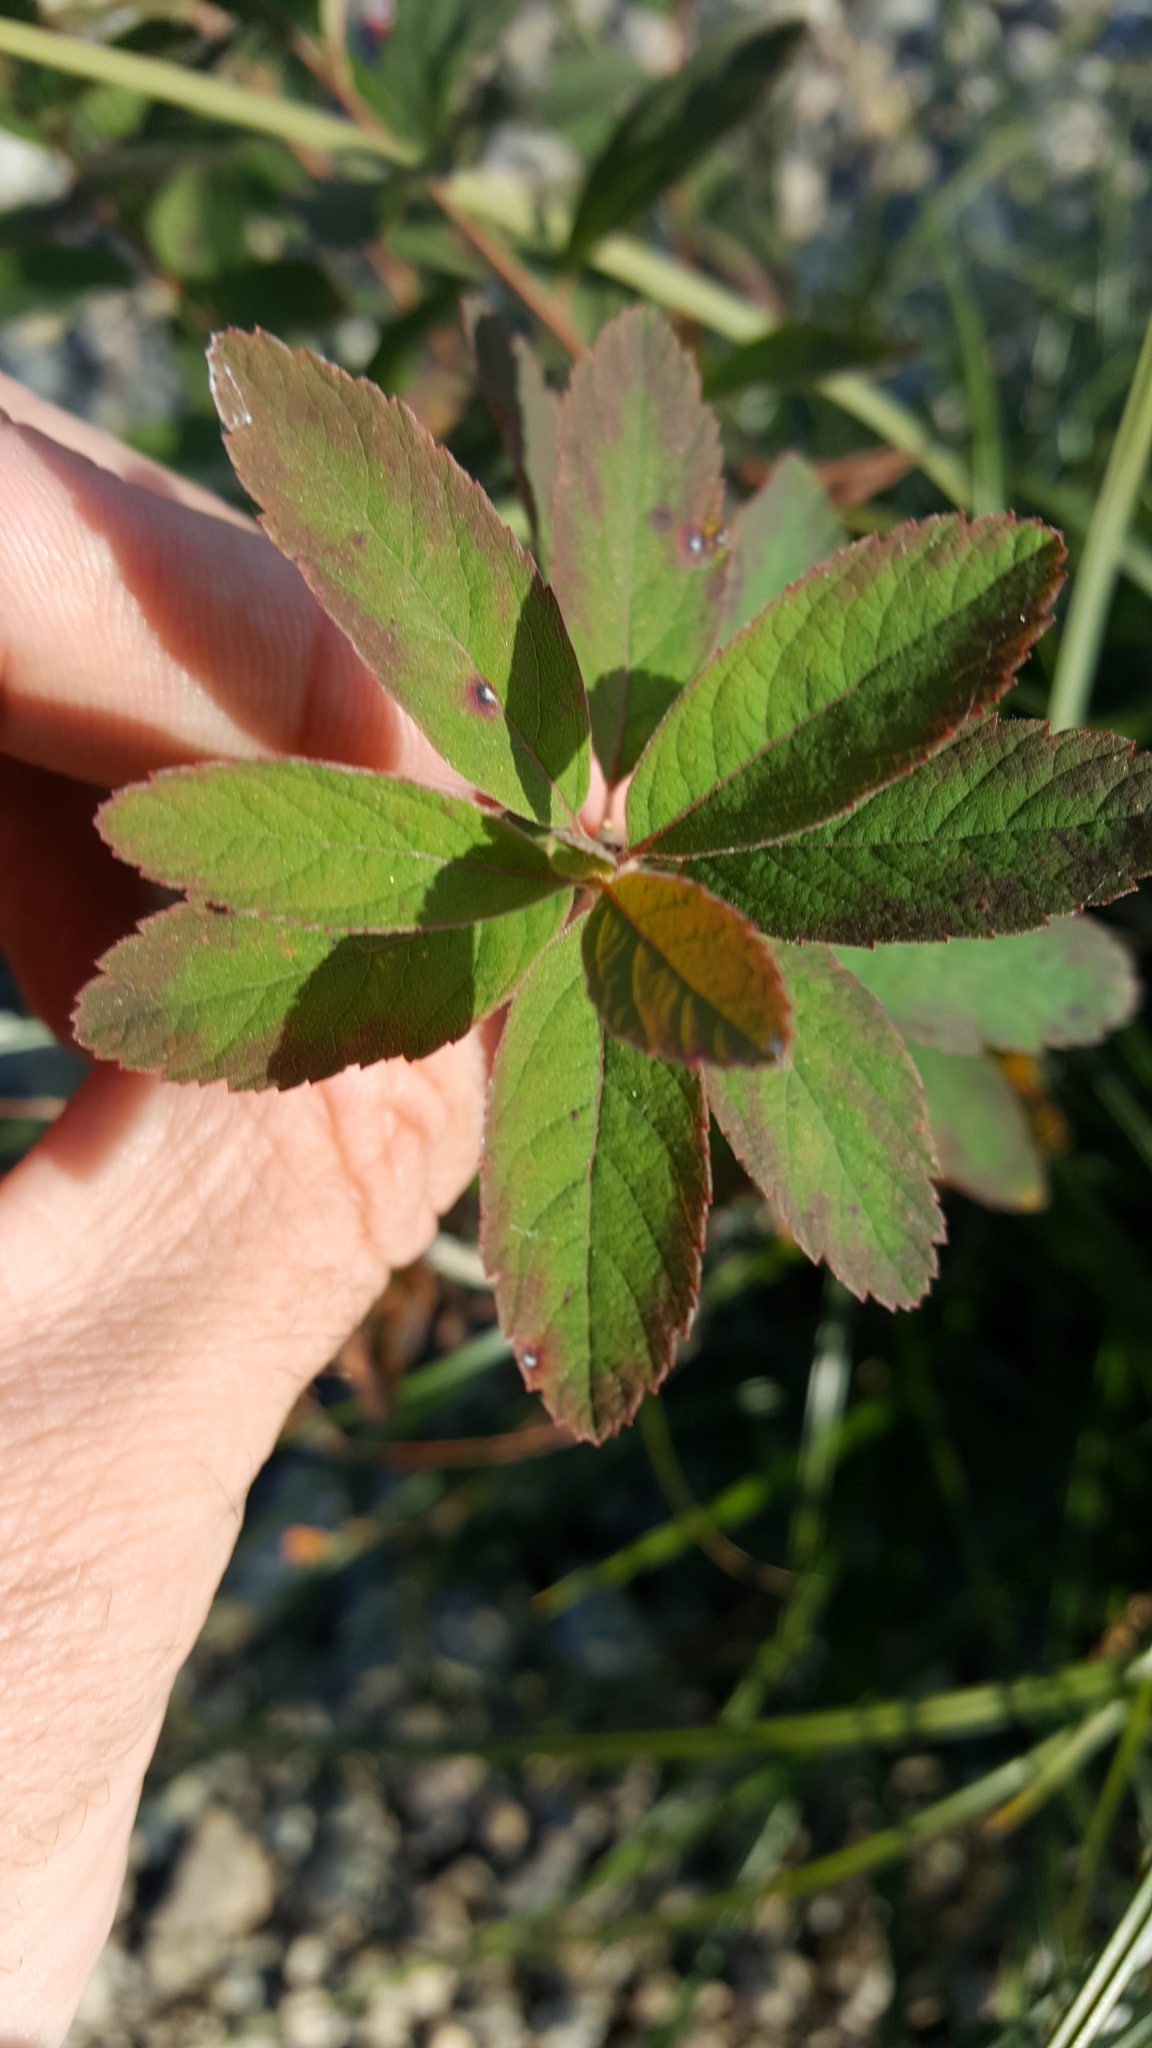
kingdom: Plantae
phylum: Tracheophyta
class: Magnoliopsida
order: Rosales
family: Rosaceae
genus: Spiraea
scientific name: Spiraea douglasii
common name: Steeplebush
